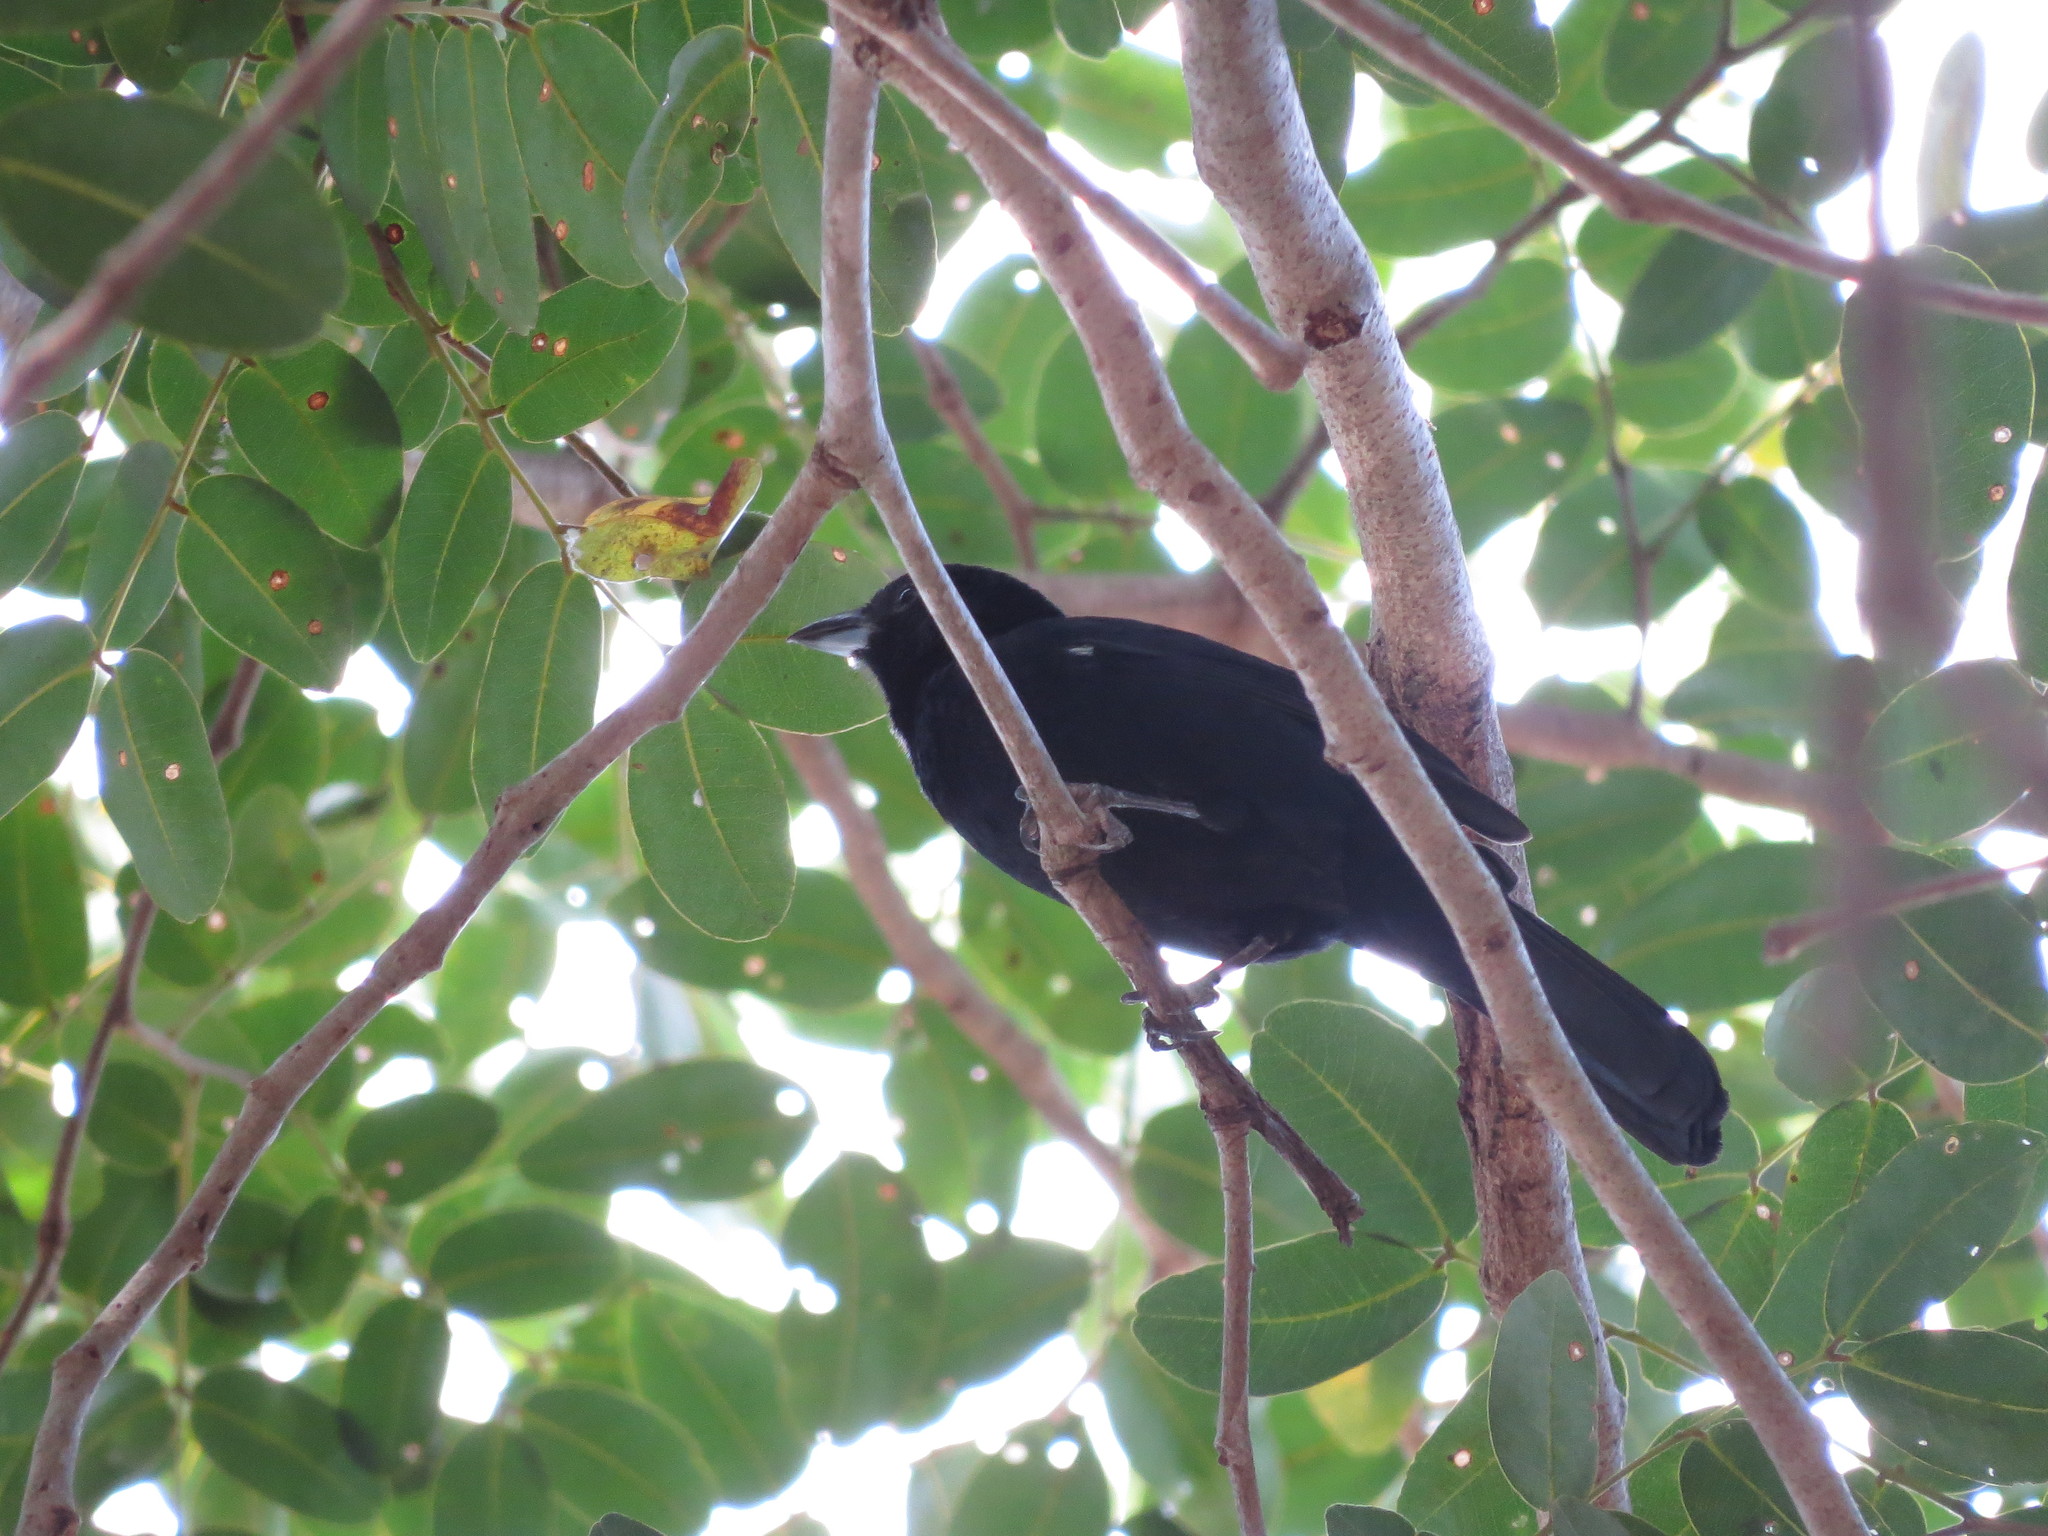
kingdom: Animalia
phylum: Chordata
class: Aves
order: Passeriformes
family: Thraupidae
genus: Tachyphonus
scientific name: Tachyphonus rufus
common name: White-lined tanager
